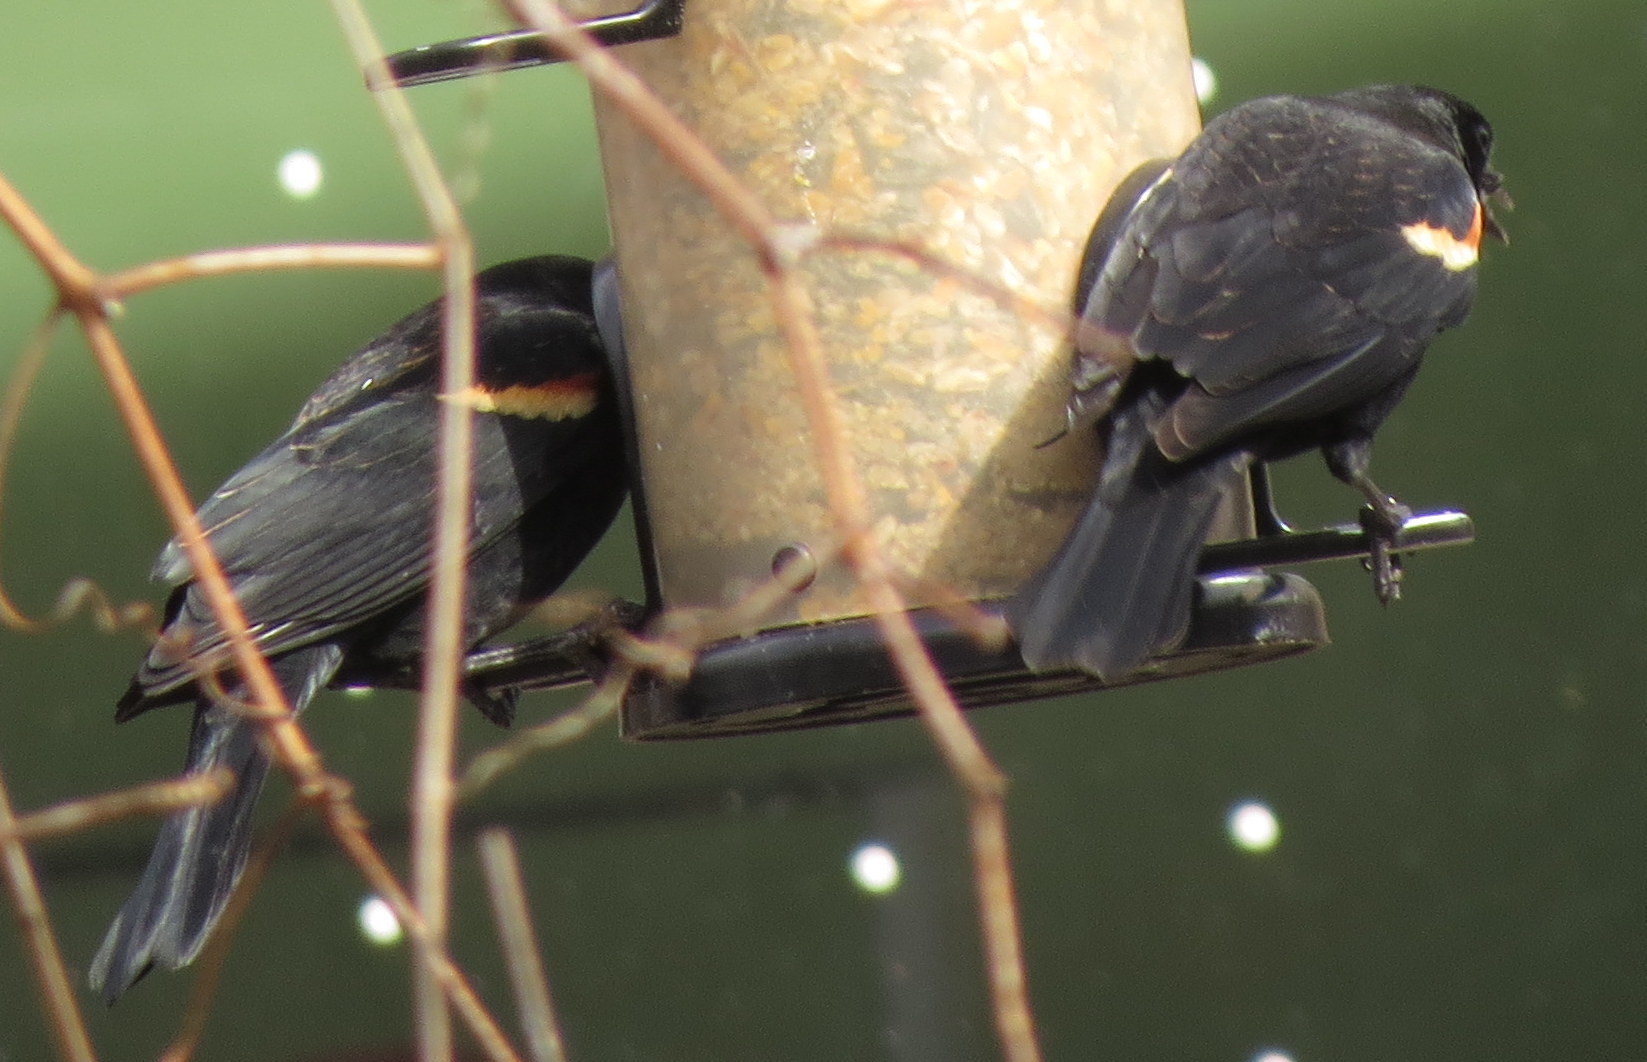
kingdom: Animalia
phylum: Chordata
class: Aves
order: Passeriformes
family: Icteridae
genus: Agelaius
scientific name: Agelaius phoeniceus
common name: Red-winged blackbird
